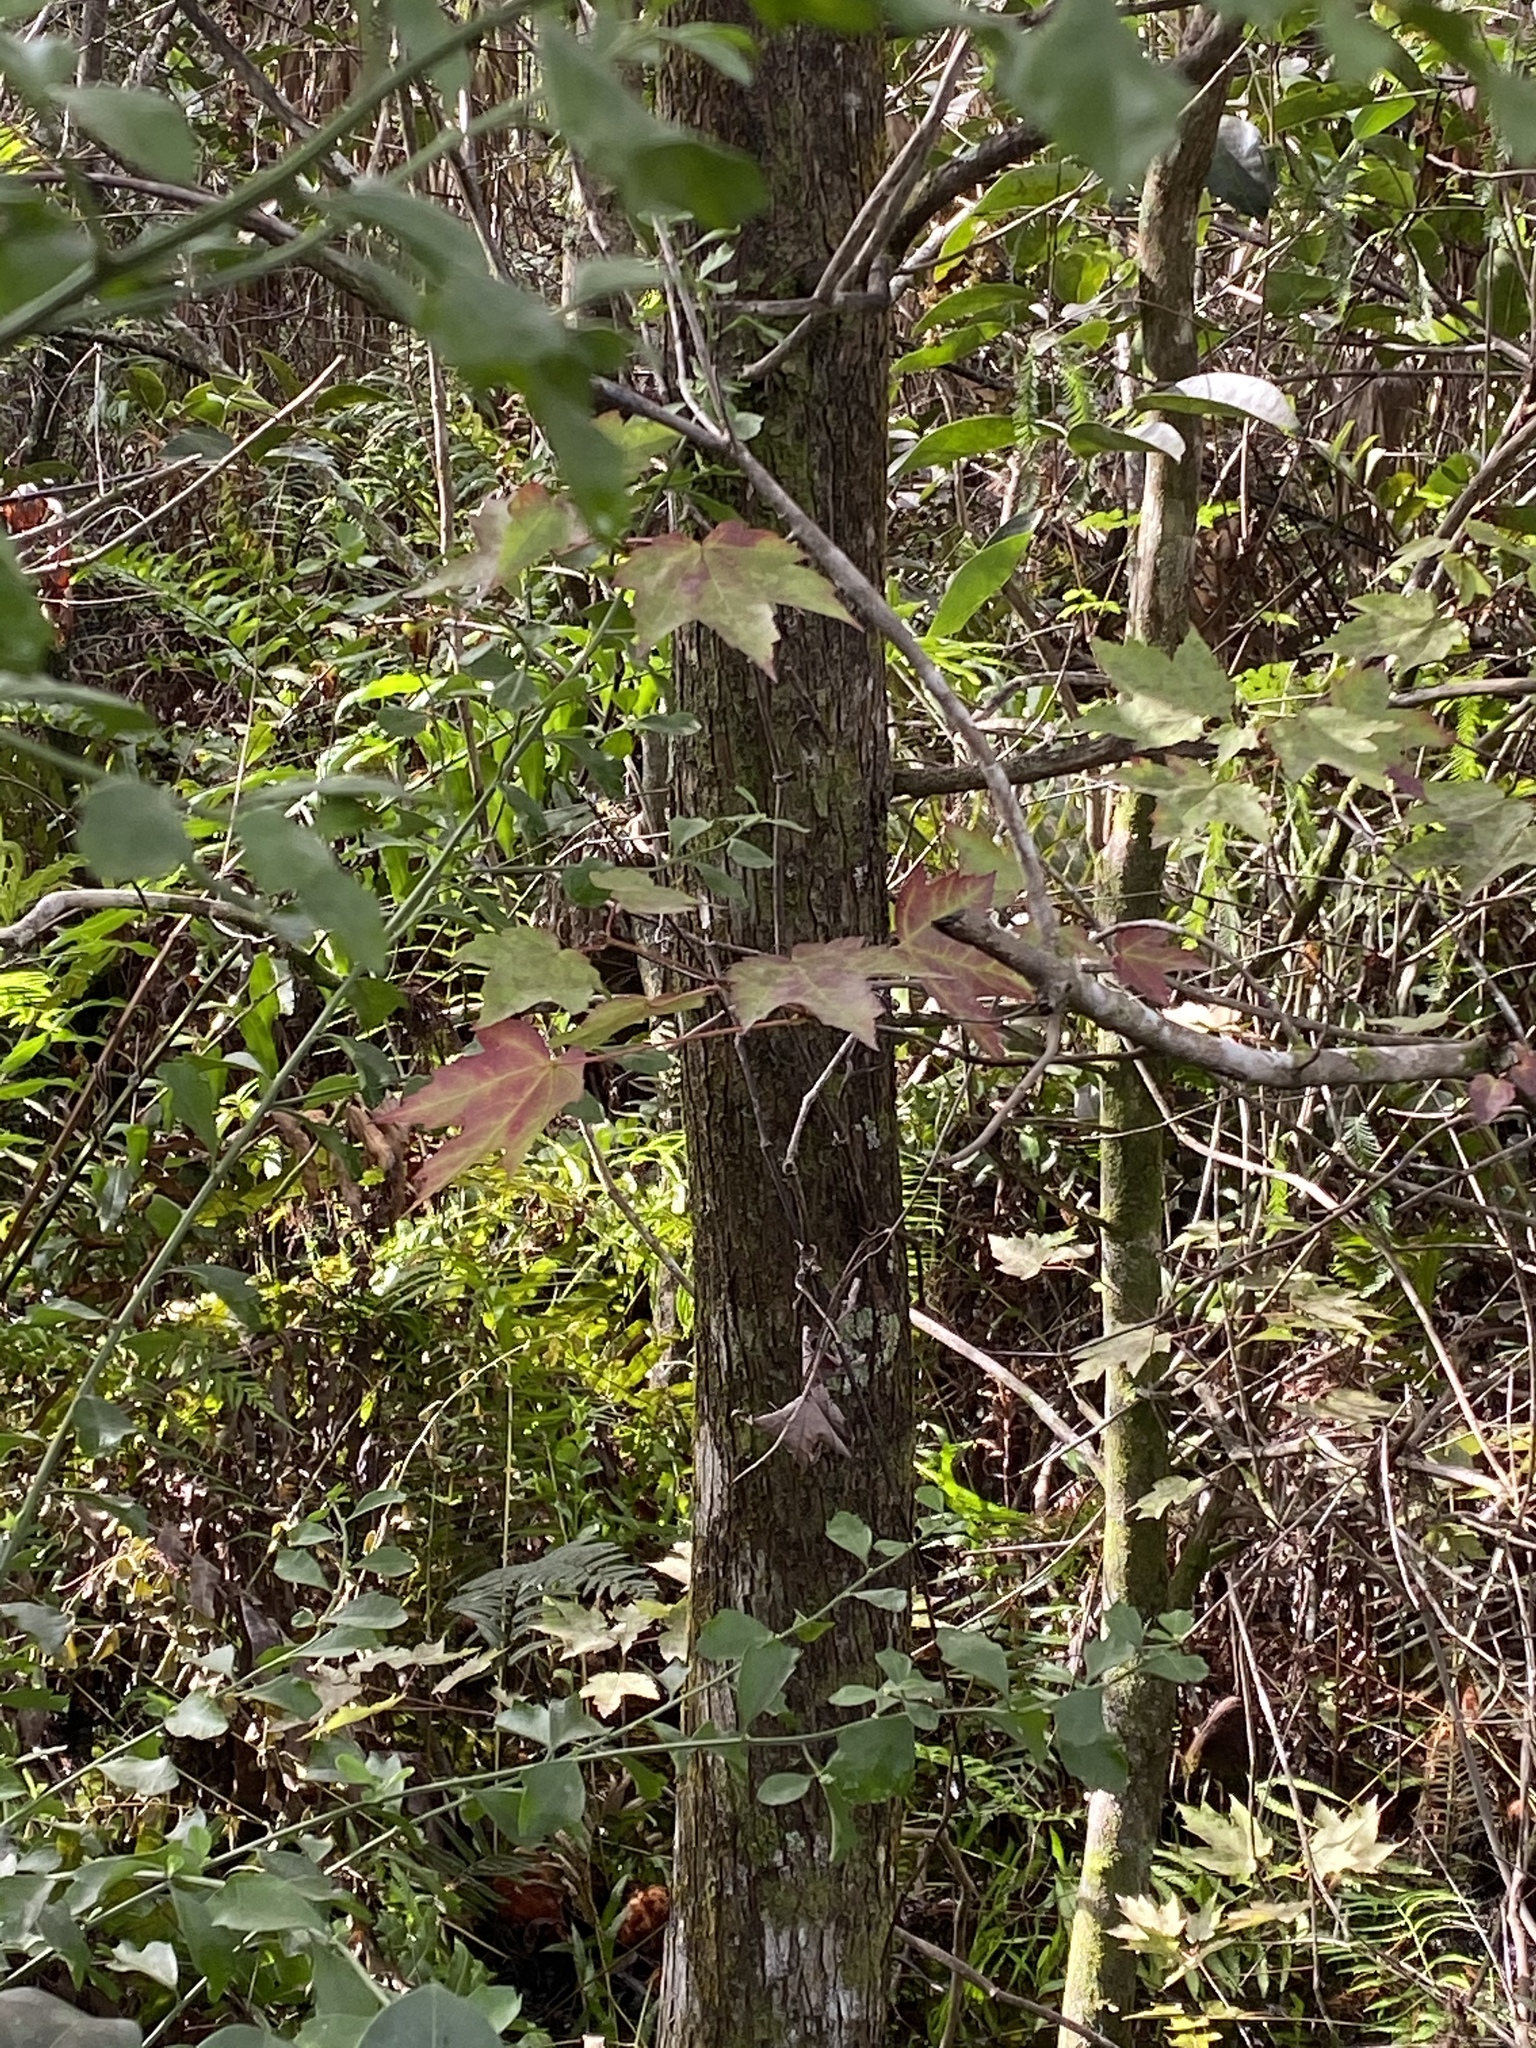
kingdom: Plantae
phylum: Tracheophyta
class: Magnoliopsida
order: Sapindales
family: Sapindaceae
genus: Acer
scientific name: Acer rubrum
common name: Red maple
